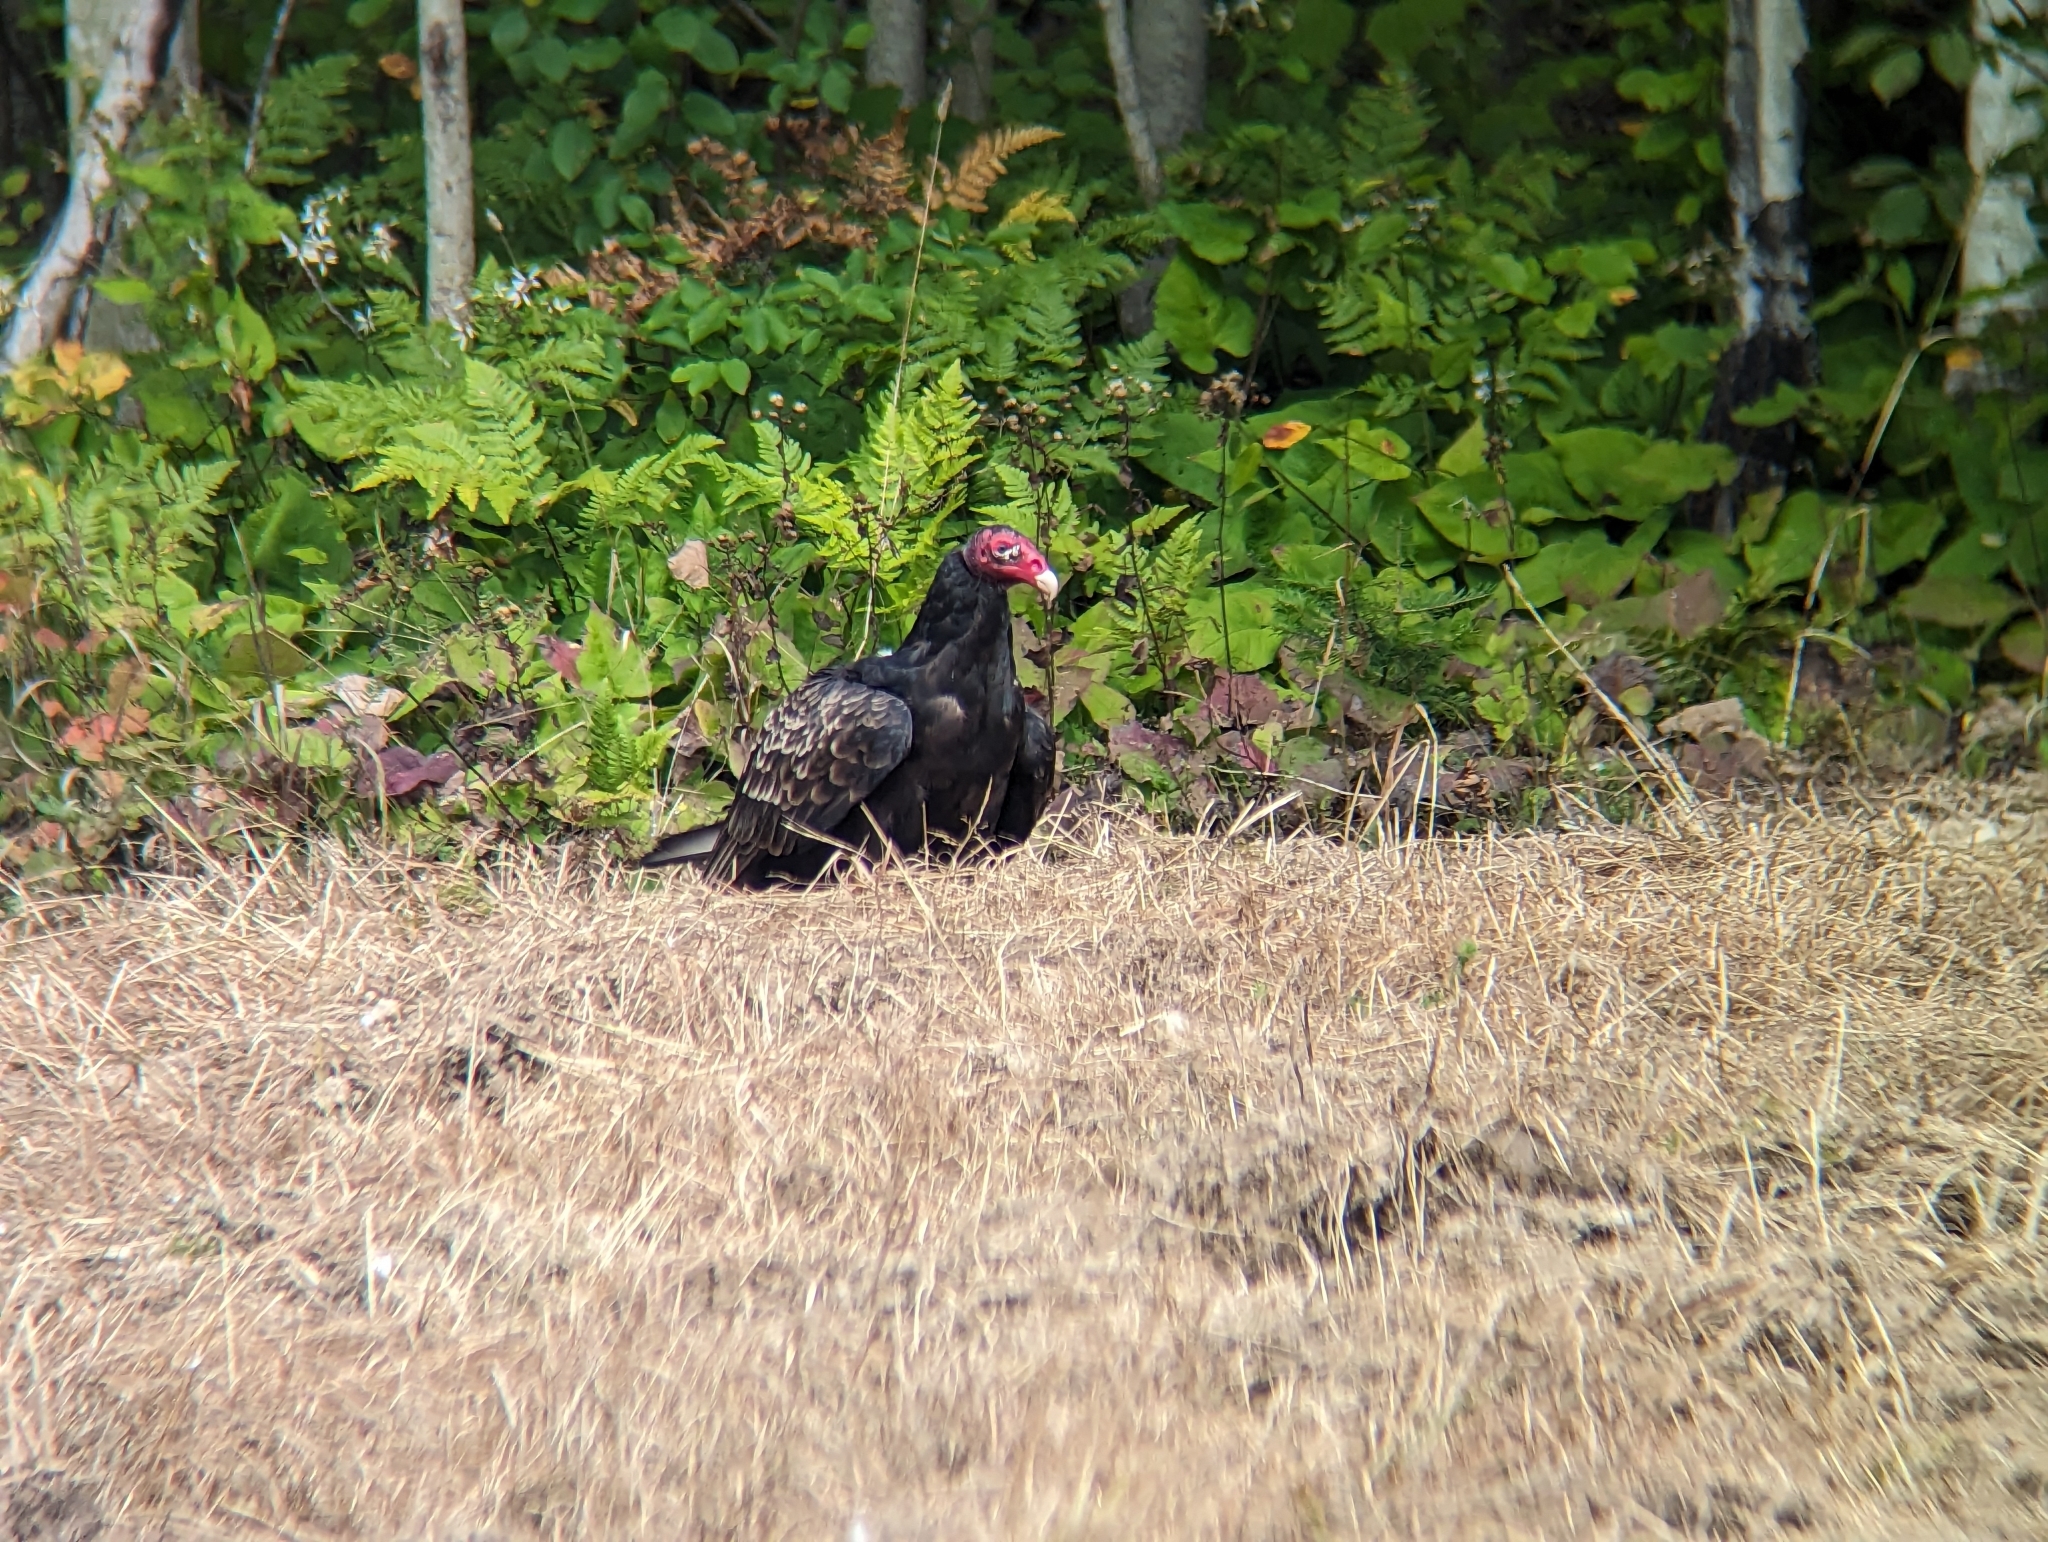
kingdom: Animalia
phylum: Chordata
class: Aves
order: Accipitriformes
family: Cathartidae
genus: Cathartes
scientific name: Cathartes aura
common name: Turkey vulture
